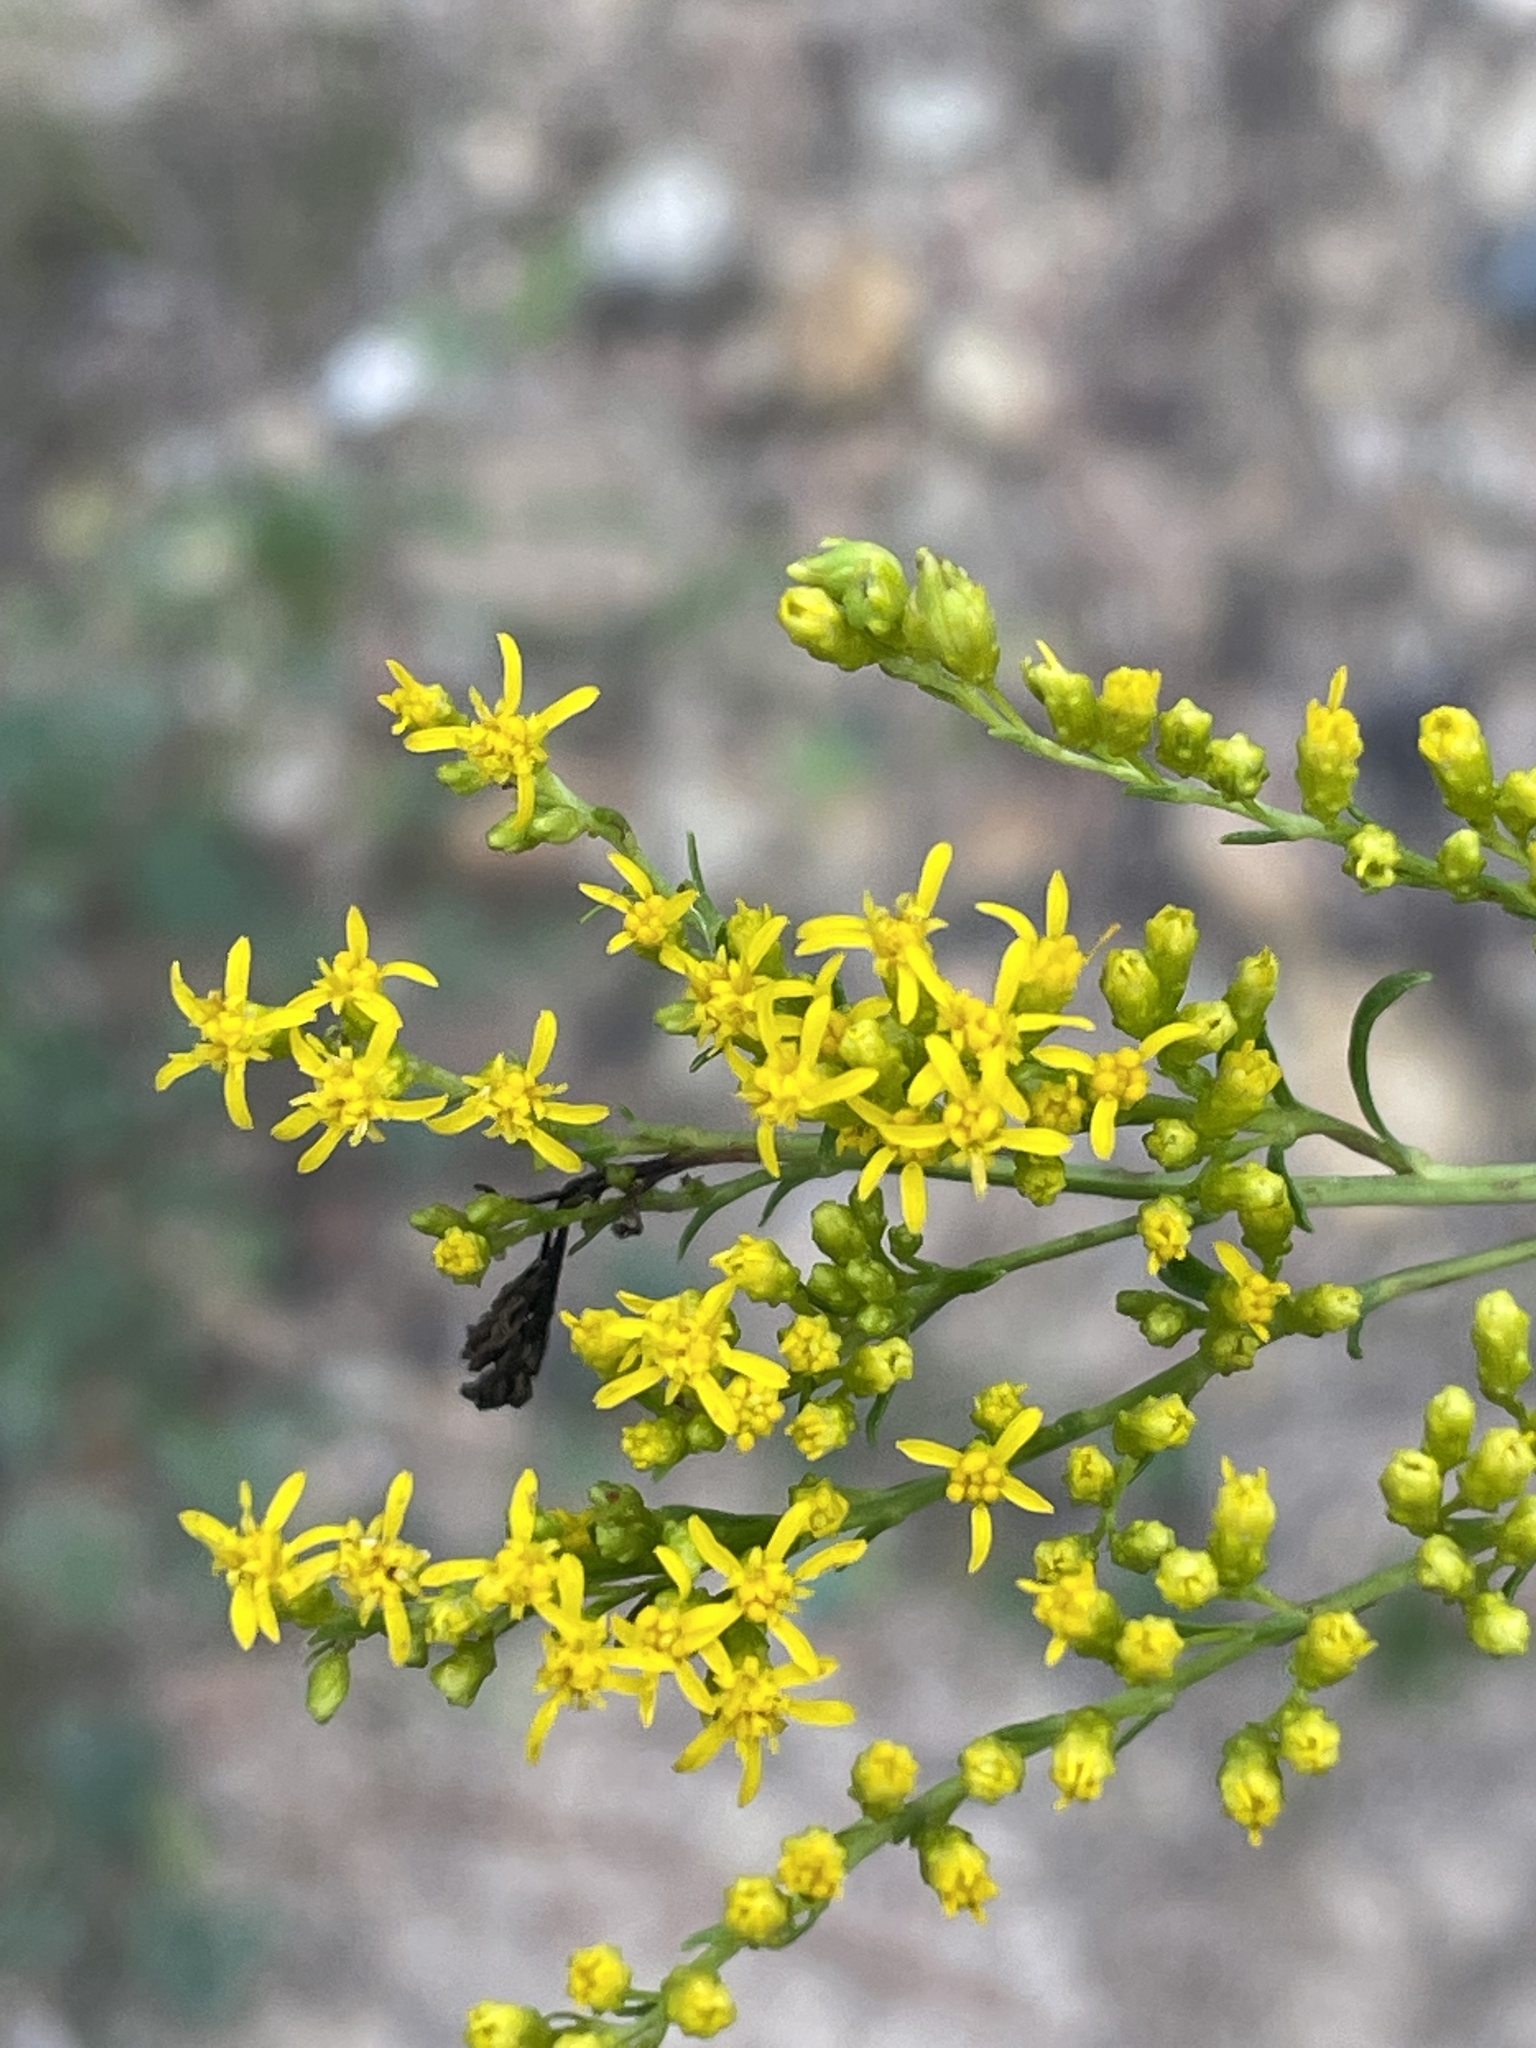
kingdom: Plantae
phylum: Tracheophyta
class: Magnoliopsida
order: Asterales
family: Asteraceae
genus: Solidago
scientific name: Solidago pinetorum
